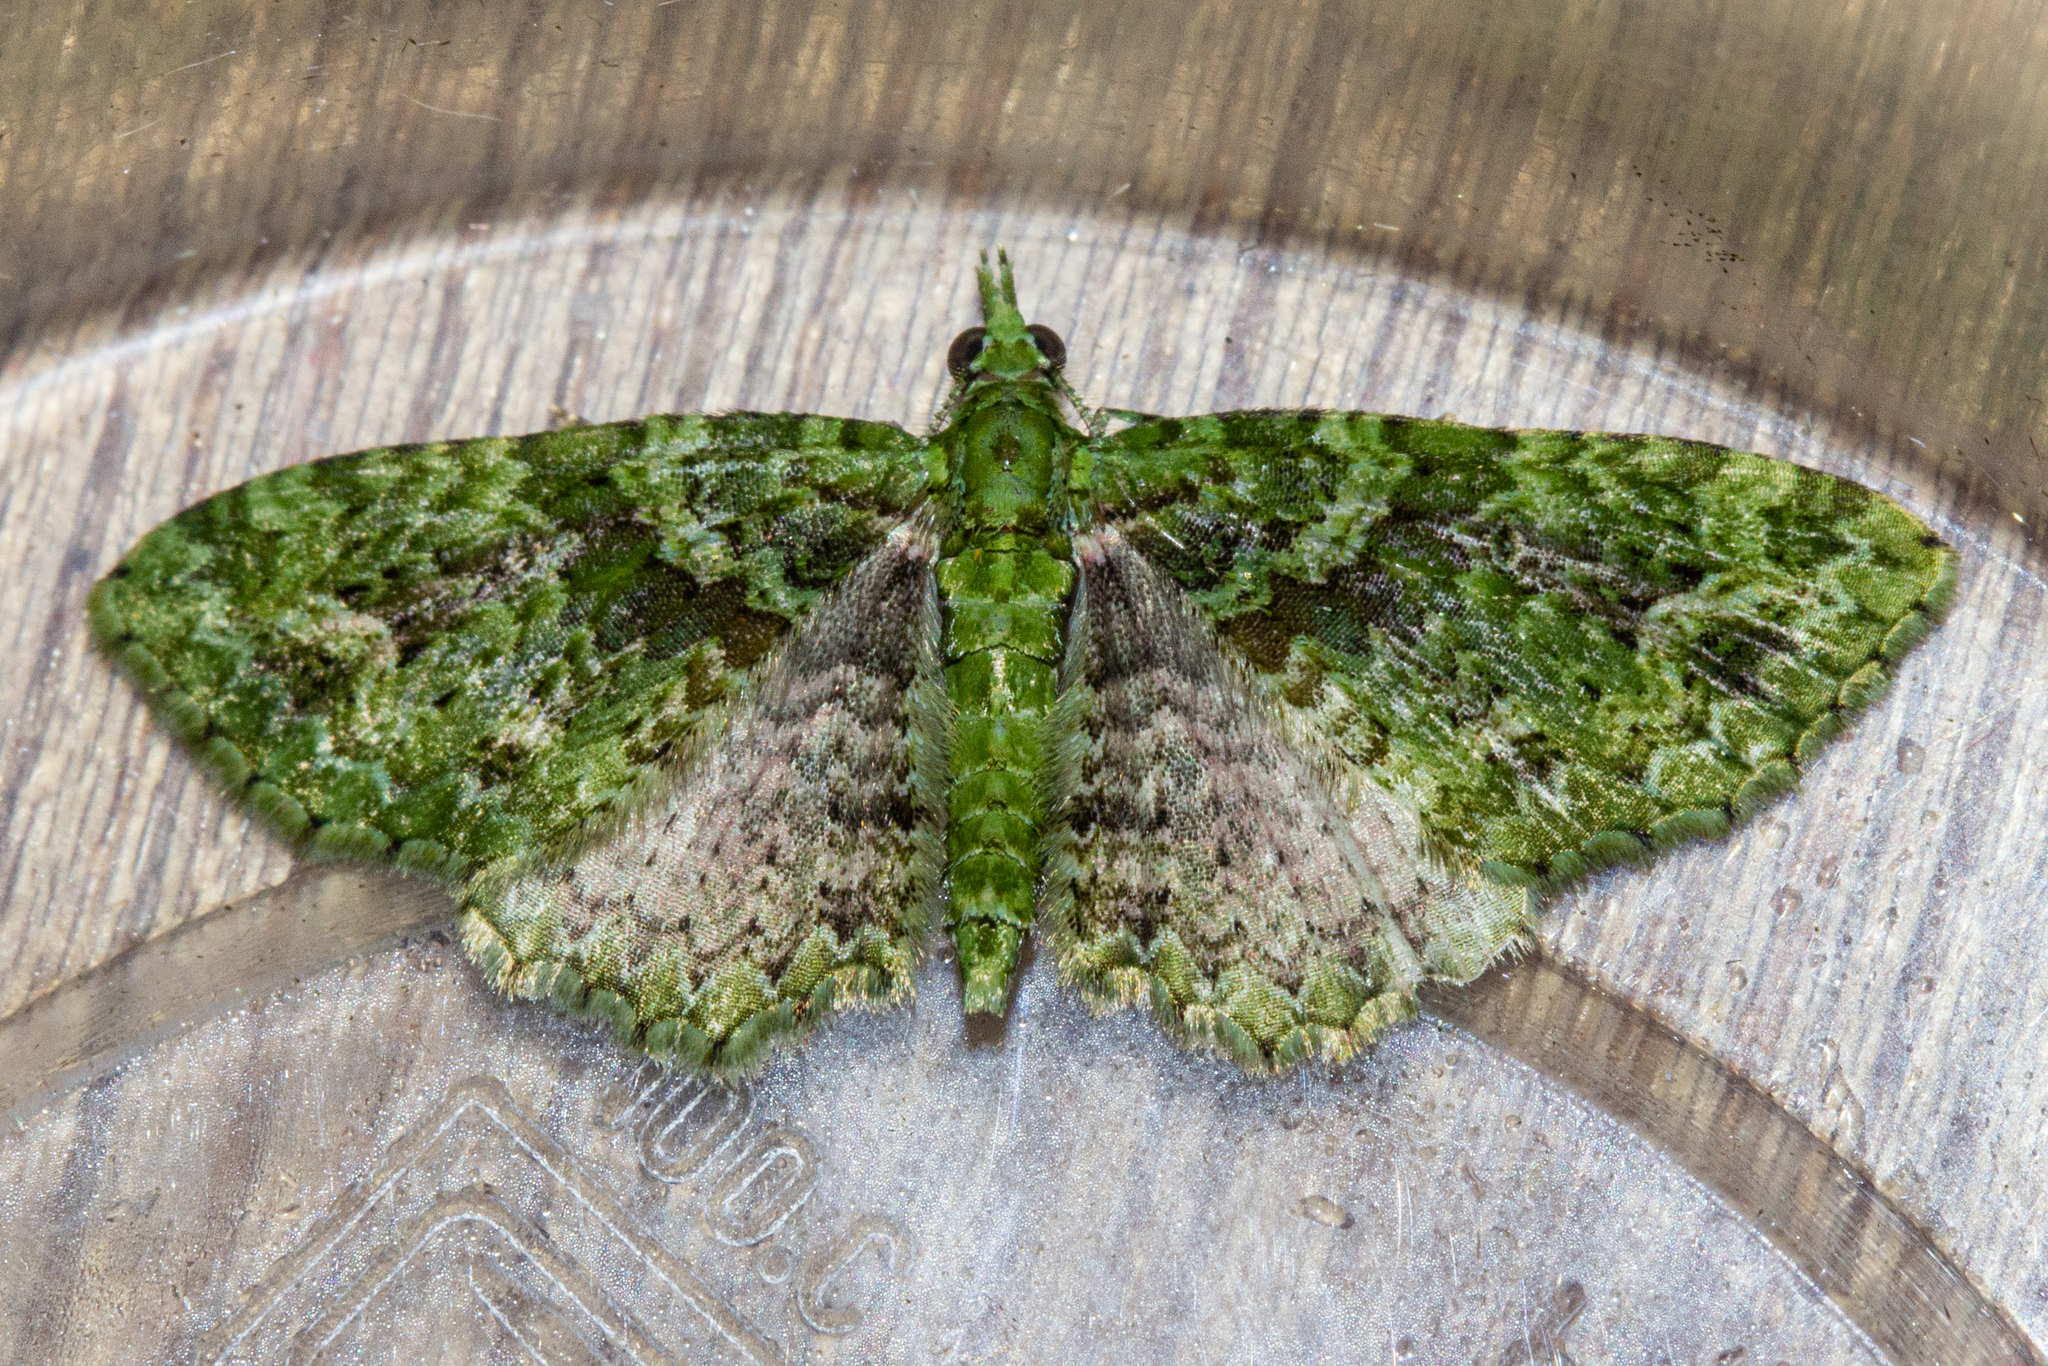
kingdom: Animalia
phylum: Arthropoda
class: Insecta
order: Lepidoptera
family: Geometridae
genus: Pasiphila
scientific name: Pasiphila muscosata
